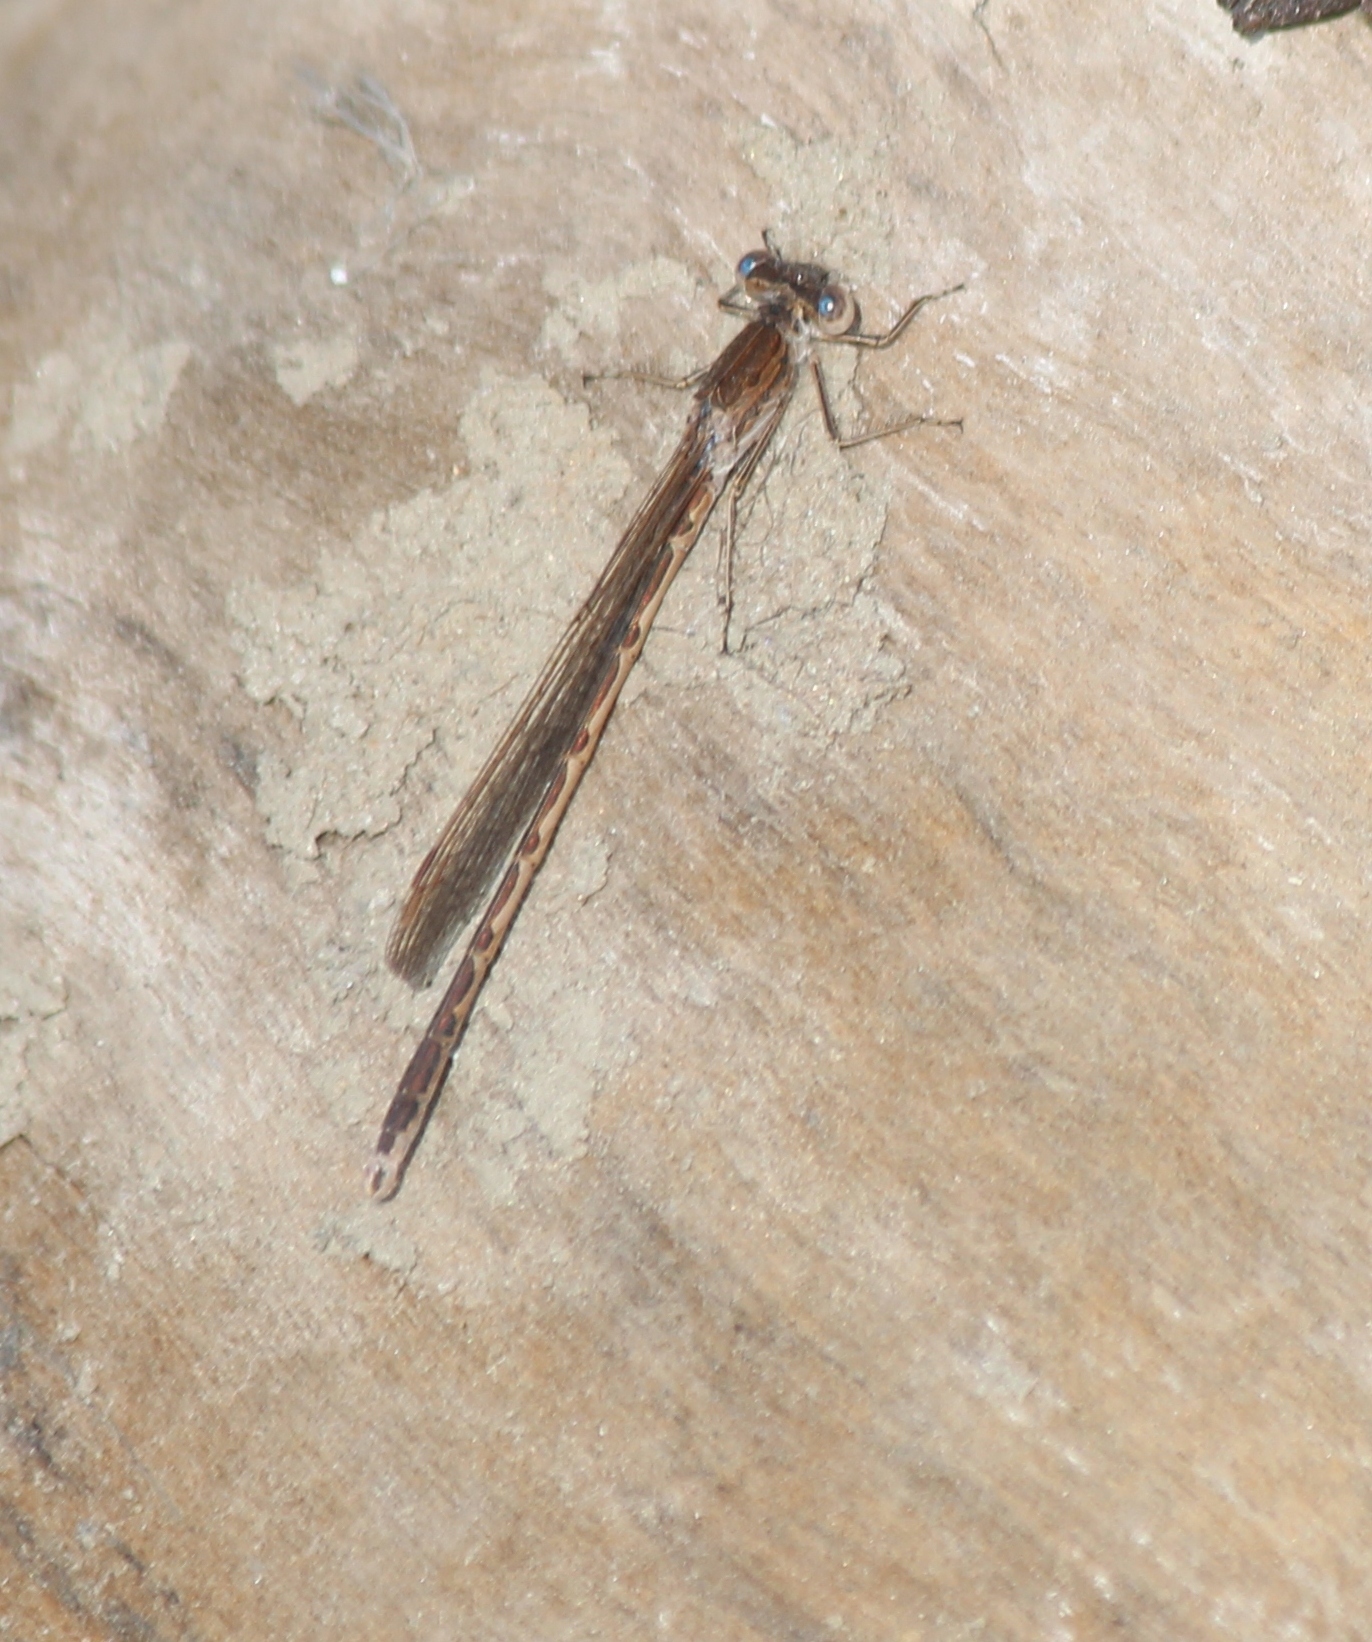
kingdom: Animalia
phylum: Arthropoda
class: Insecta
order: Odonata
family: Lestidae
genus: Sympecma
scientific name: Sympecma paedisca
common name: Siberian winter damsel
